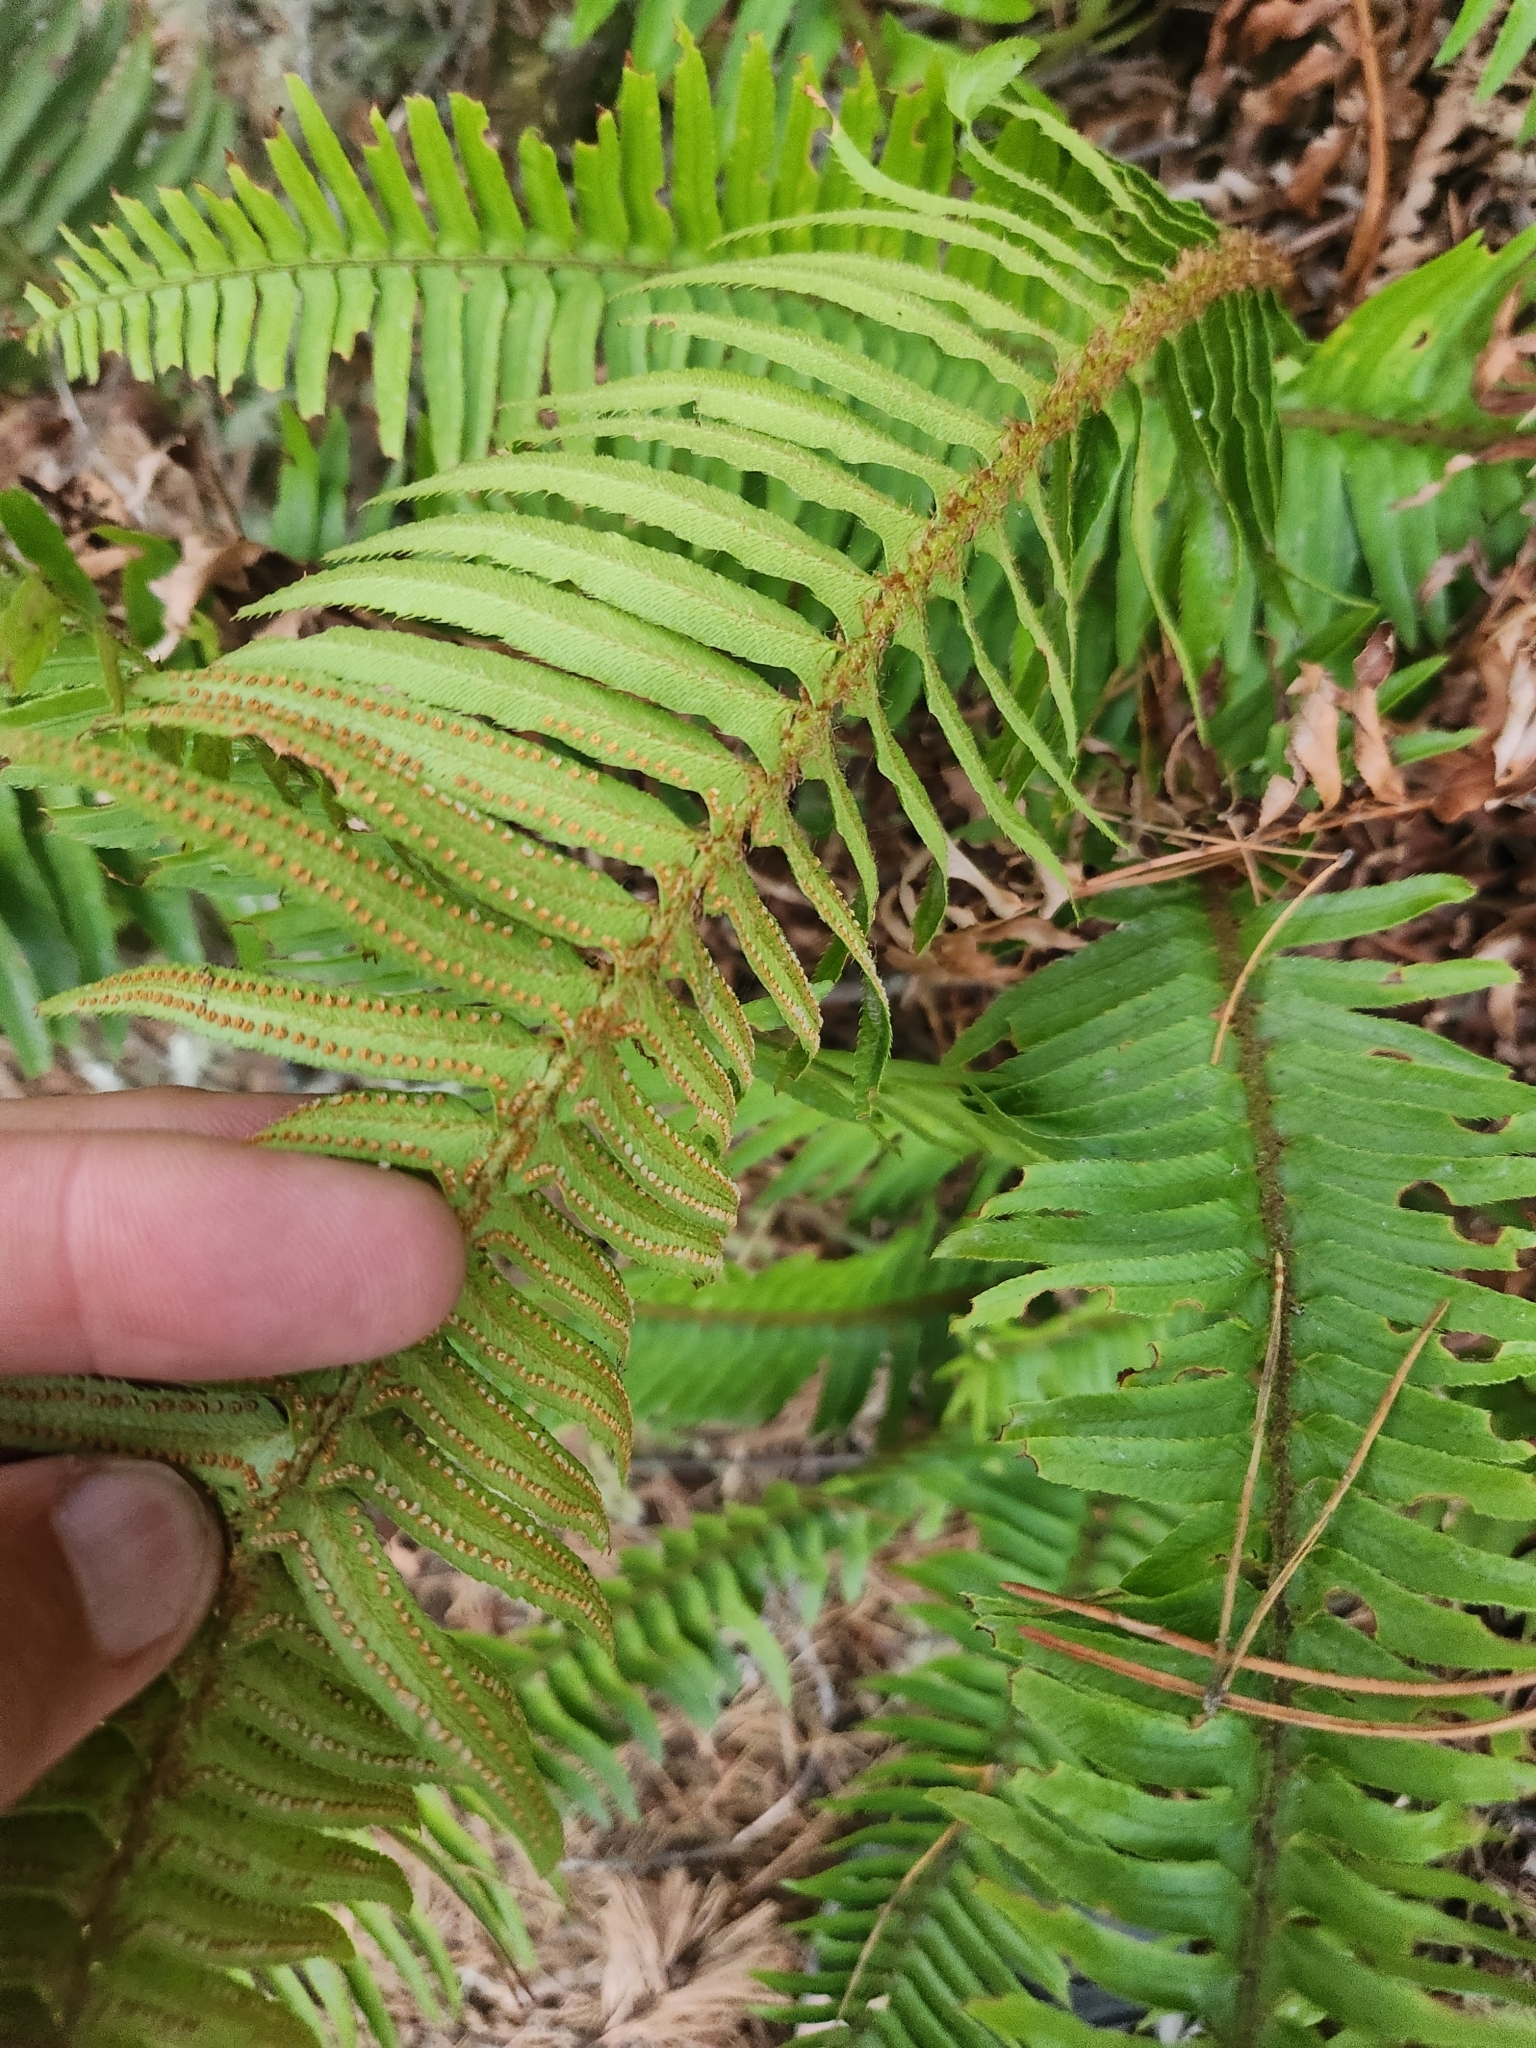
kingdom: Plantae
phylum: Tracheophyta
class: Polypodiopsida
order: Polypodiales
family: Dryopteridaceae
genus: Polystichum
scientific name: Polystichum munitum
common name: Western sword-fern
